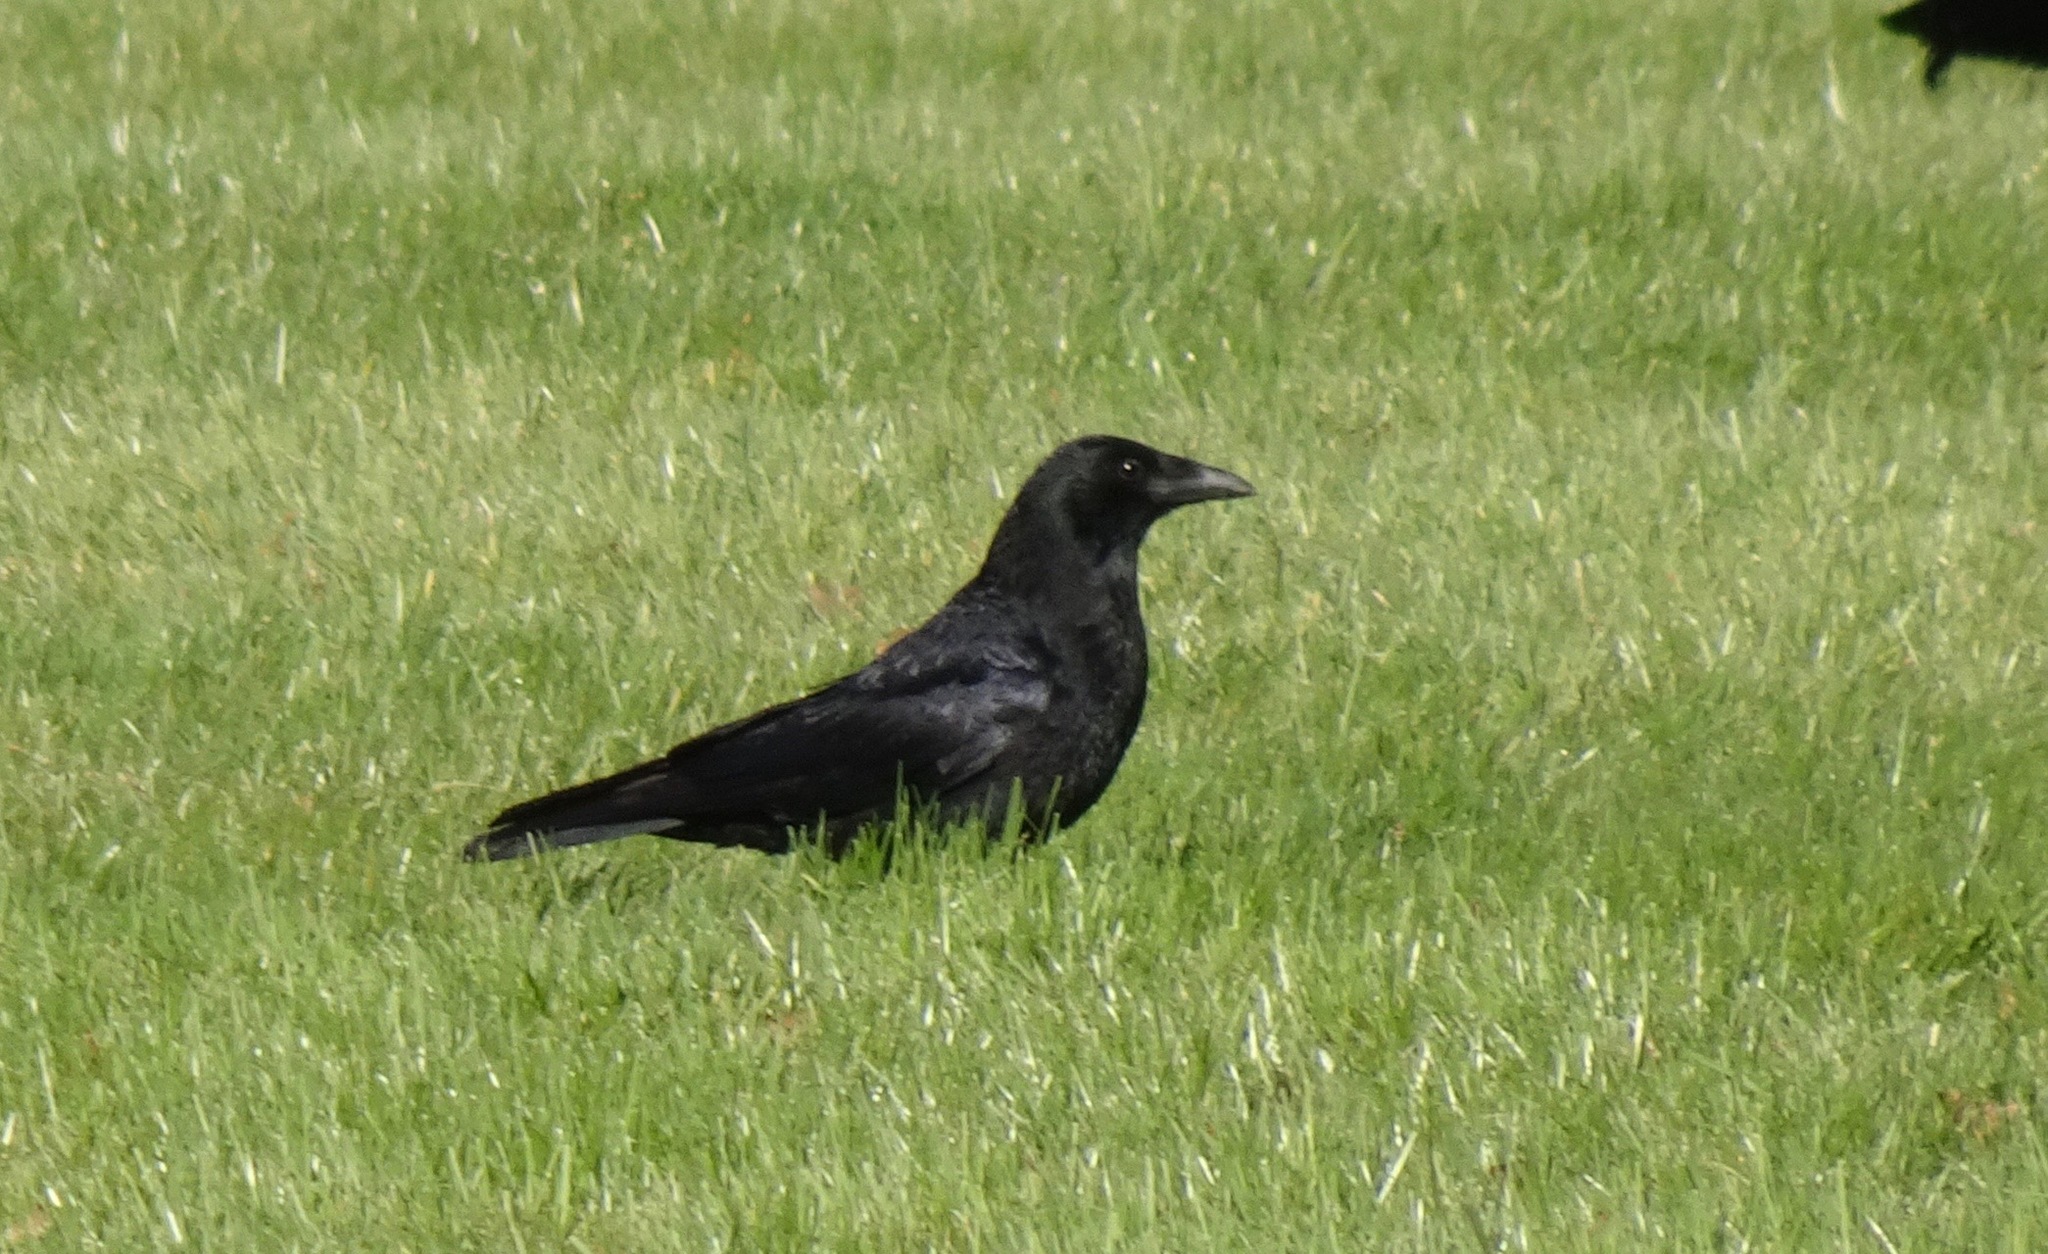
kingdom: Animalia
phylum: Chordata
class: Aves
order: Passeriformes
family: Corvidae
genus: Corvus
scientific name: Corvus corone
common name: Carrion crow
